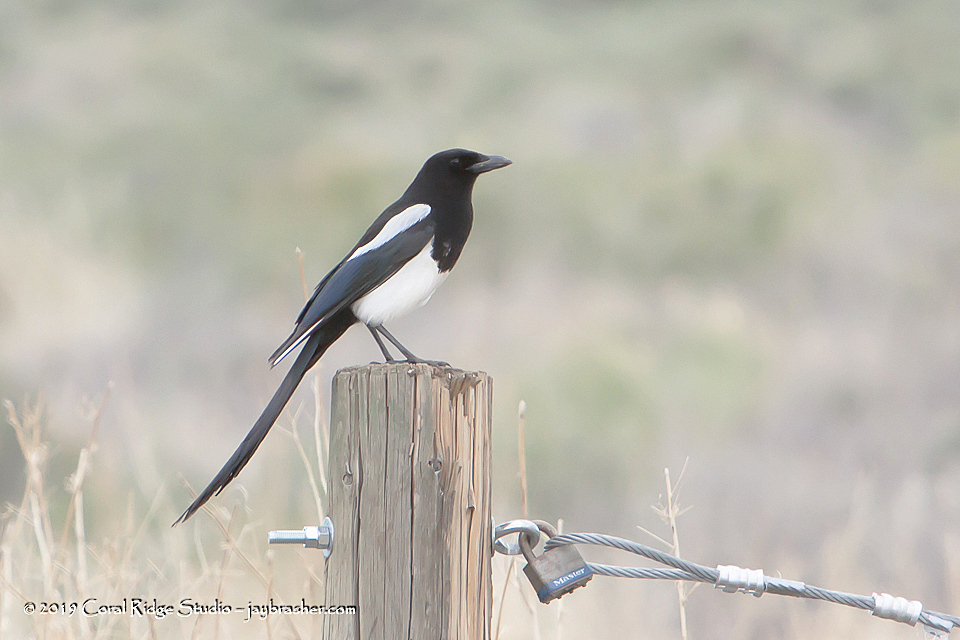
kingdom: Animalia
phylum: Chordata
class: Aves
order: Passeriformes
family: Corvidae
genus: Pica
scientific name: Pica hudsonia
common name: Black-billed magpie
